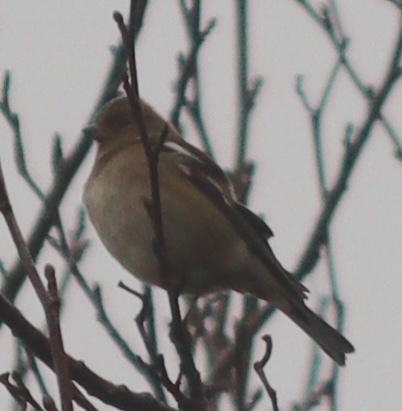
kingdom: Animalia
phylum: Chordata
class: Aves
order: Passeriformes
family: Fringillidae
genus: Fringilla
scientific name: Fringilla coelebs
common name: Common chaffinch
